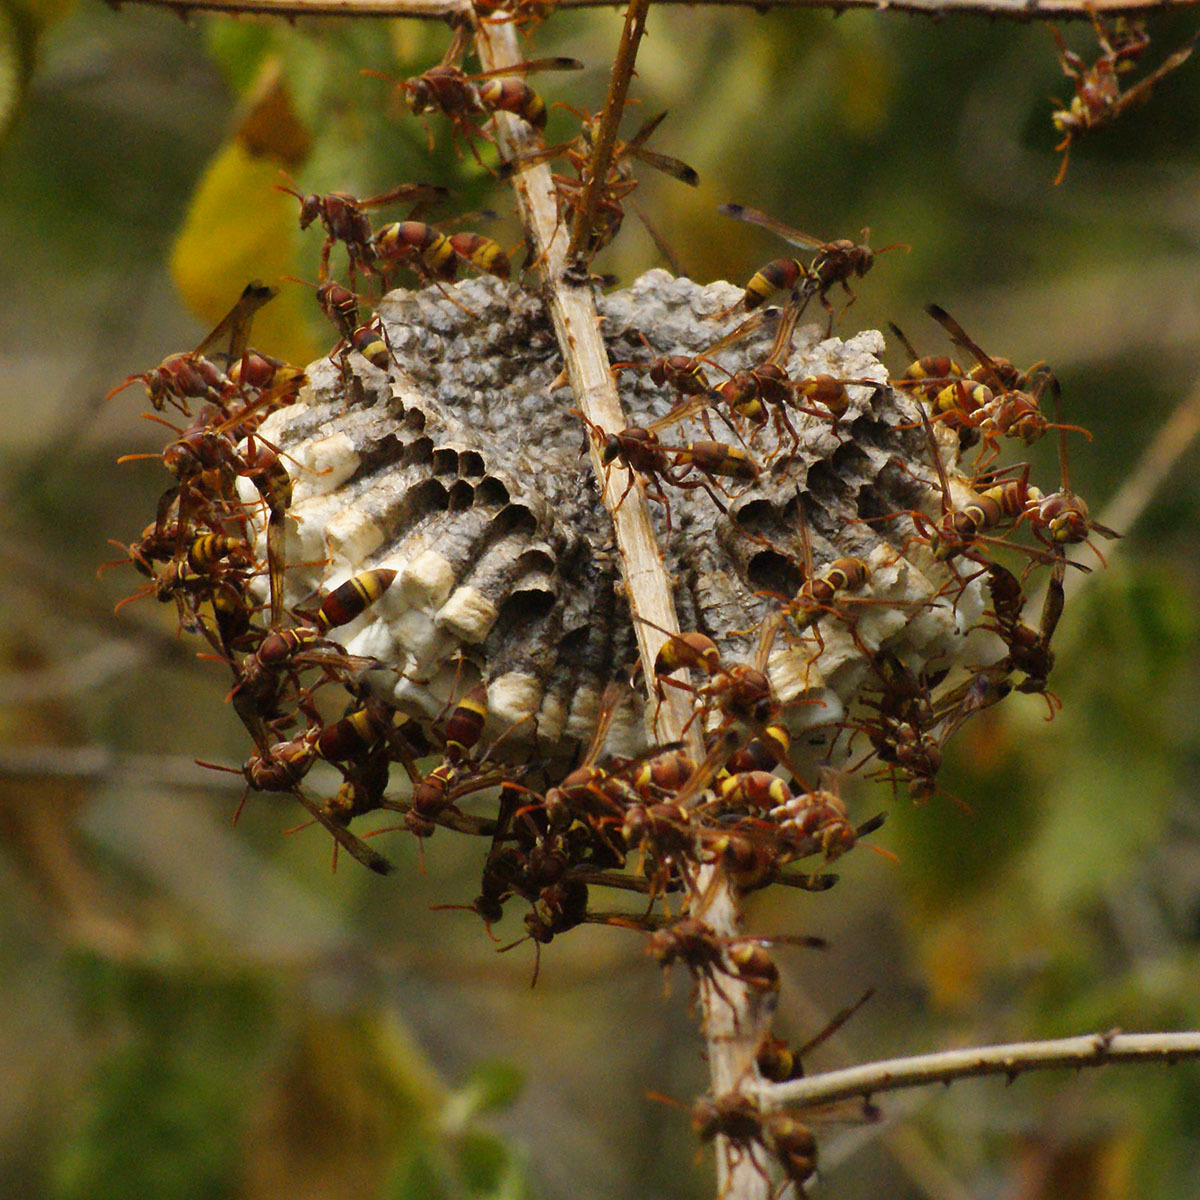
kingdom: Animalia
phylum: Arthropoda
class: Insecta
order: Hymenoptera
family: Eumenidae
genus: Polistes
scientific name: Polistes stigma
